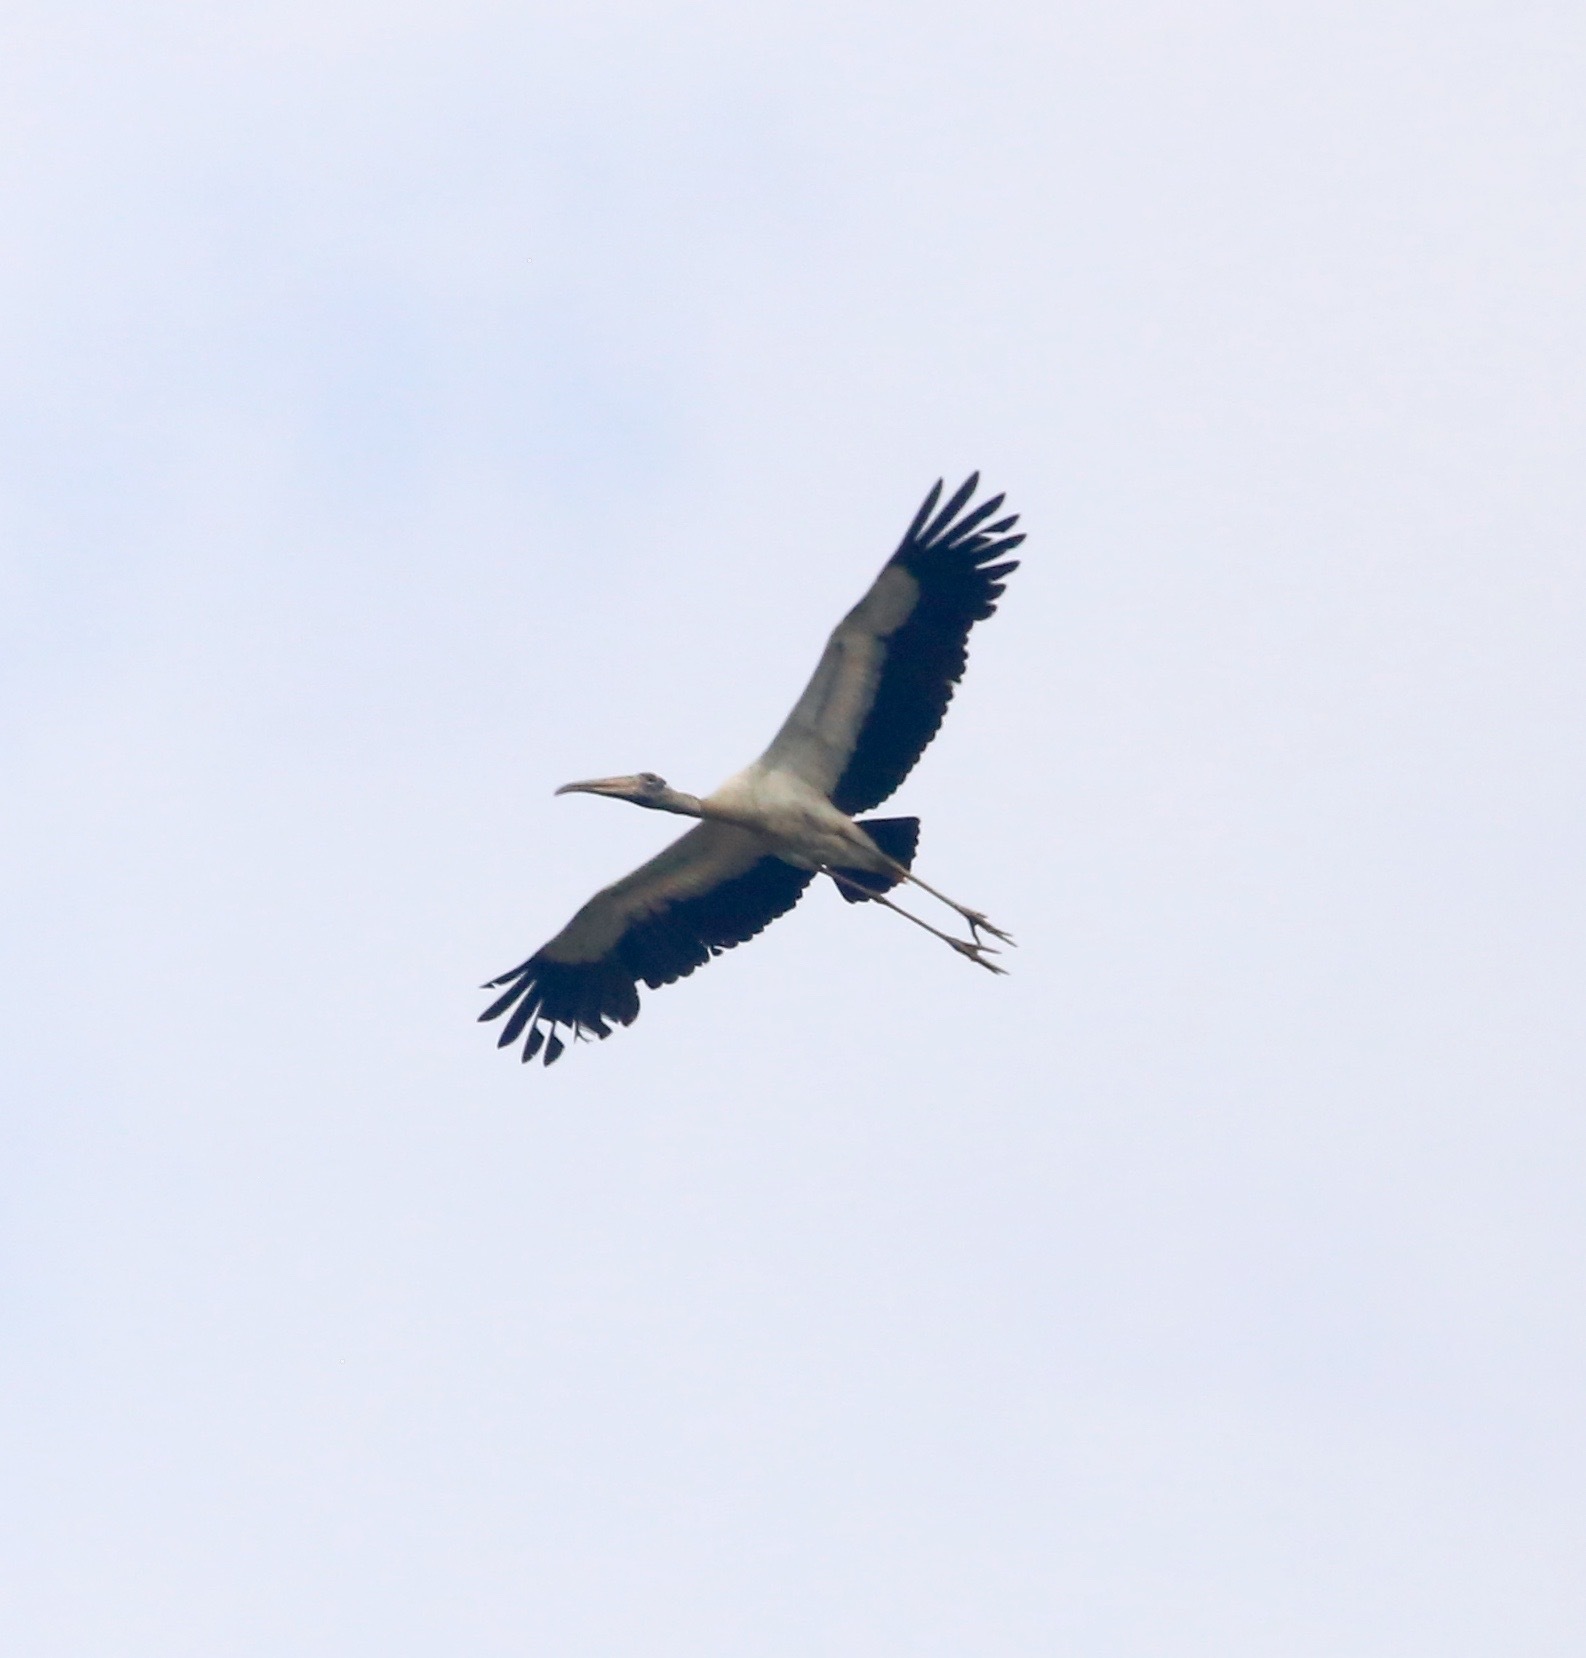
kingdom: Animalia
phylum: Chordata
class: Aves
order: Ciconiiformes
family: Ciconiidae
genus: Mycteria
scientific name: Mycteria americana
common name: Wood stork
